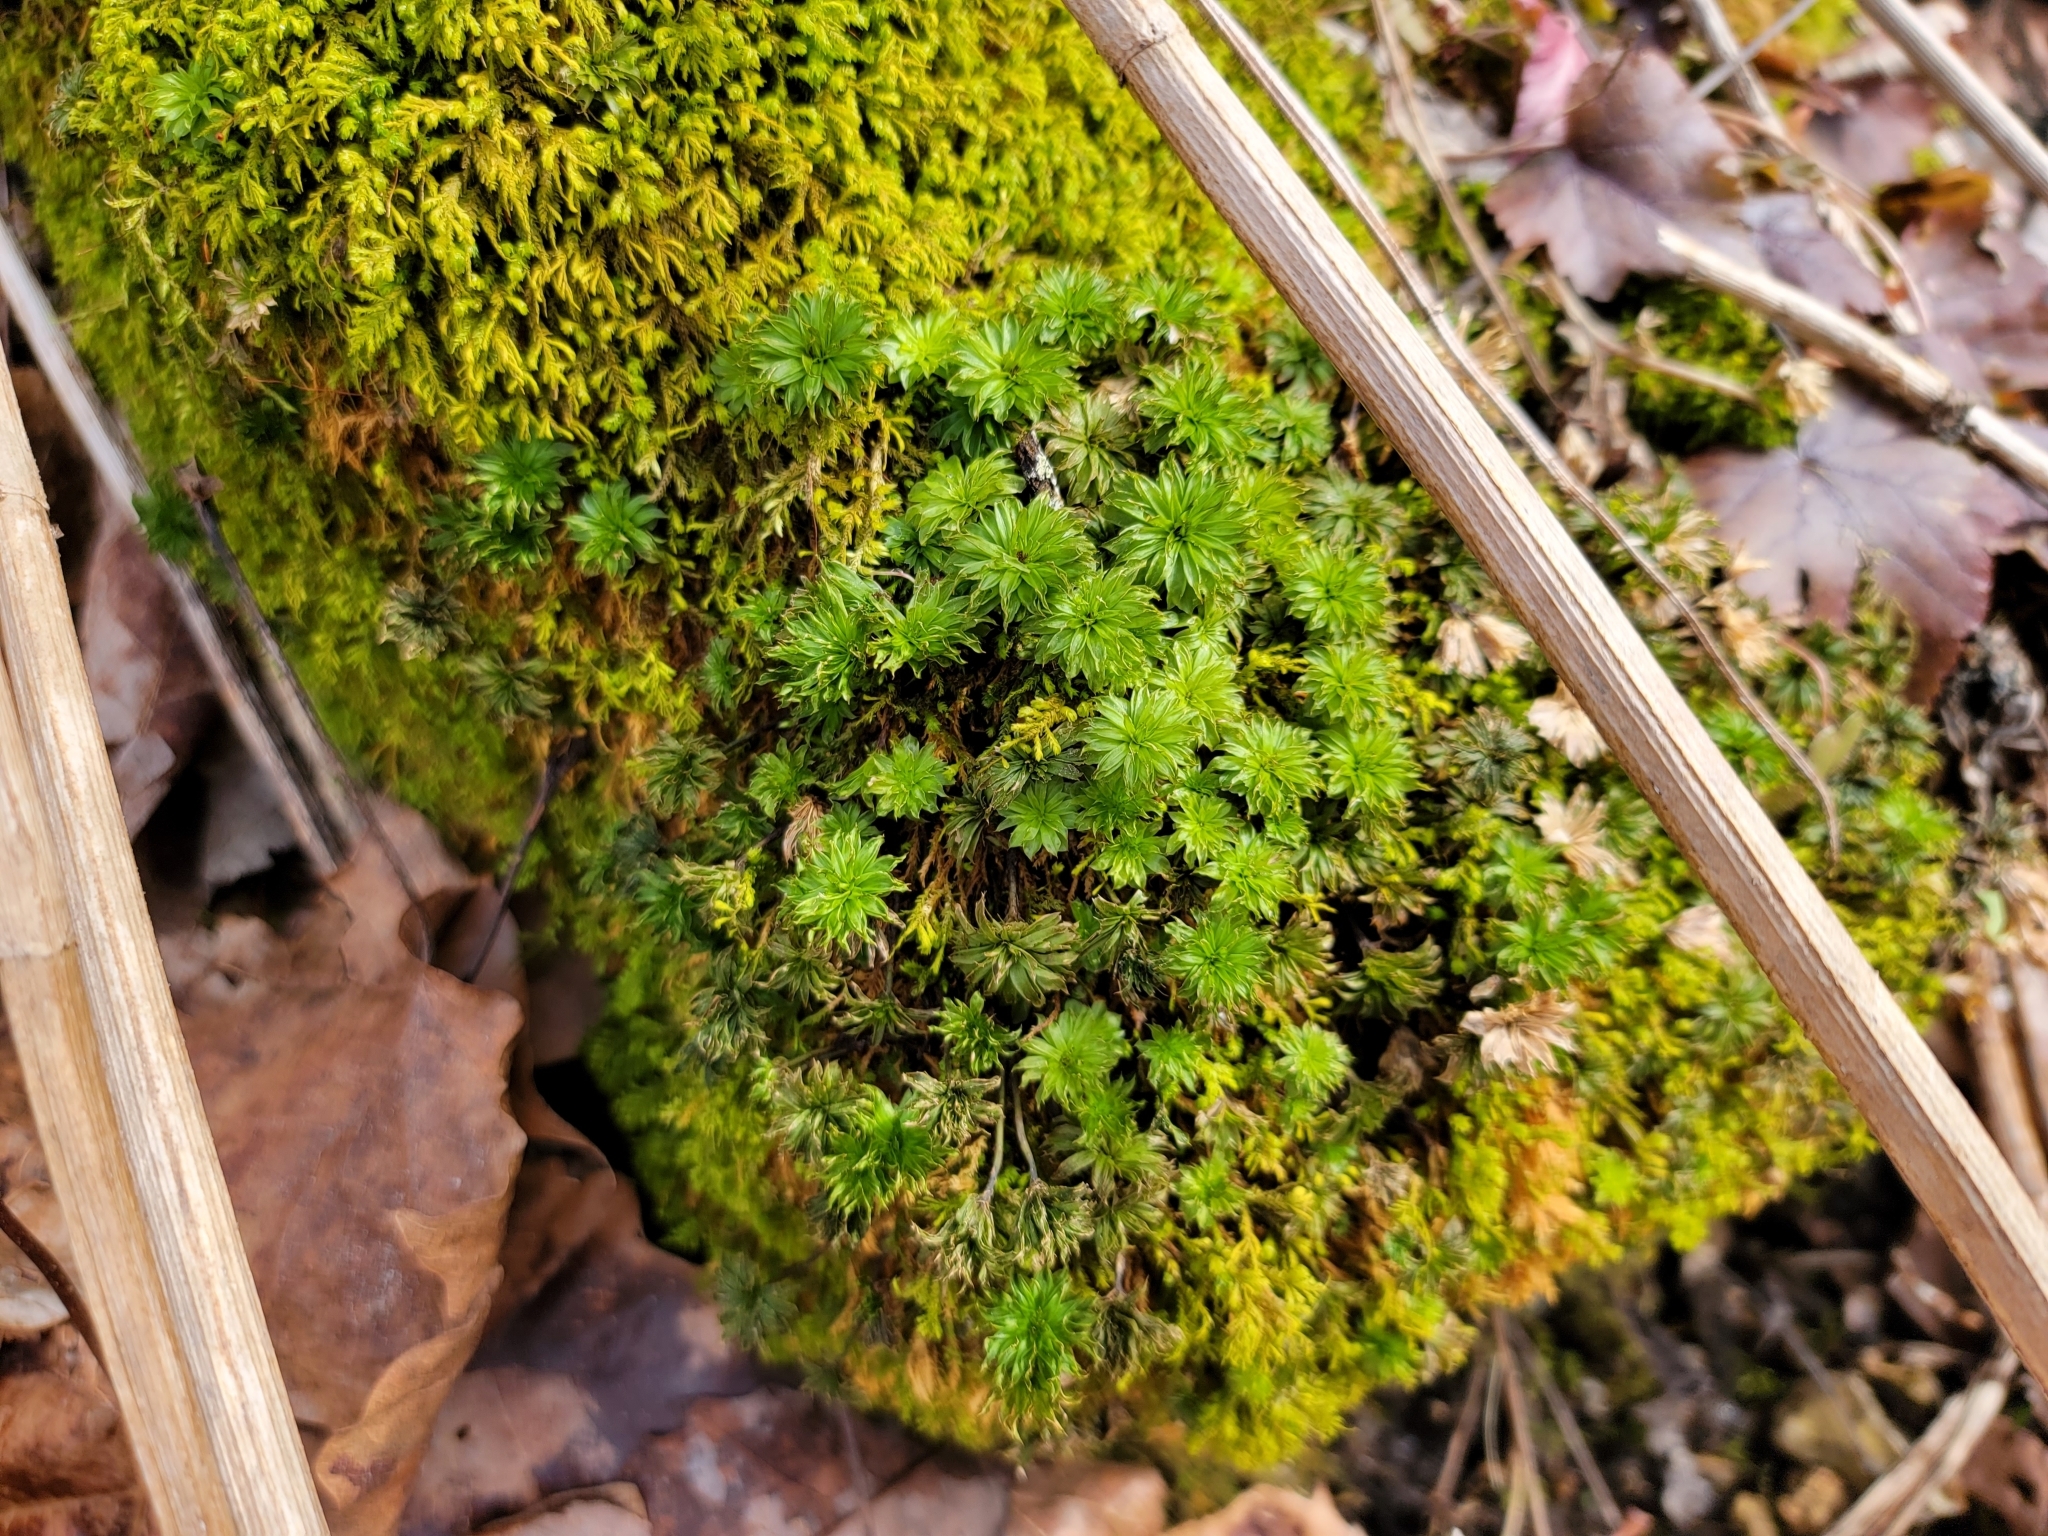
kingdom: Plantae
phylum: Bryophyta
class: Bryopsida
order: Bryales
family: Bryaceae
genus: Rhodobryum
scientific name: Rhodobryum ontariense
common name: Ontario rhodobryum moss
